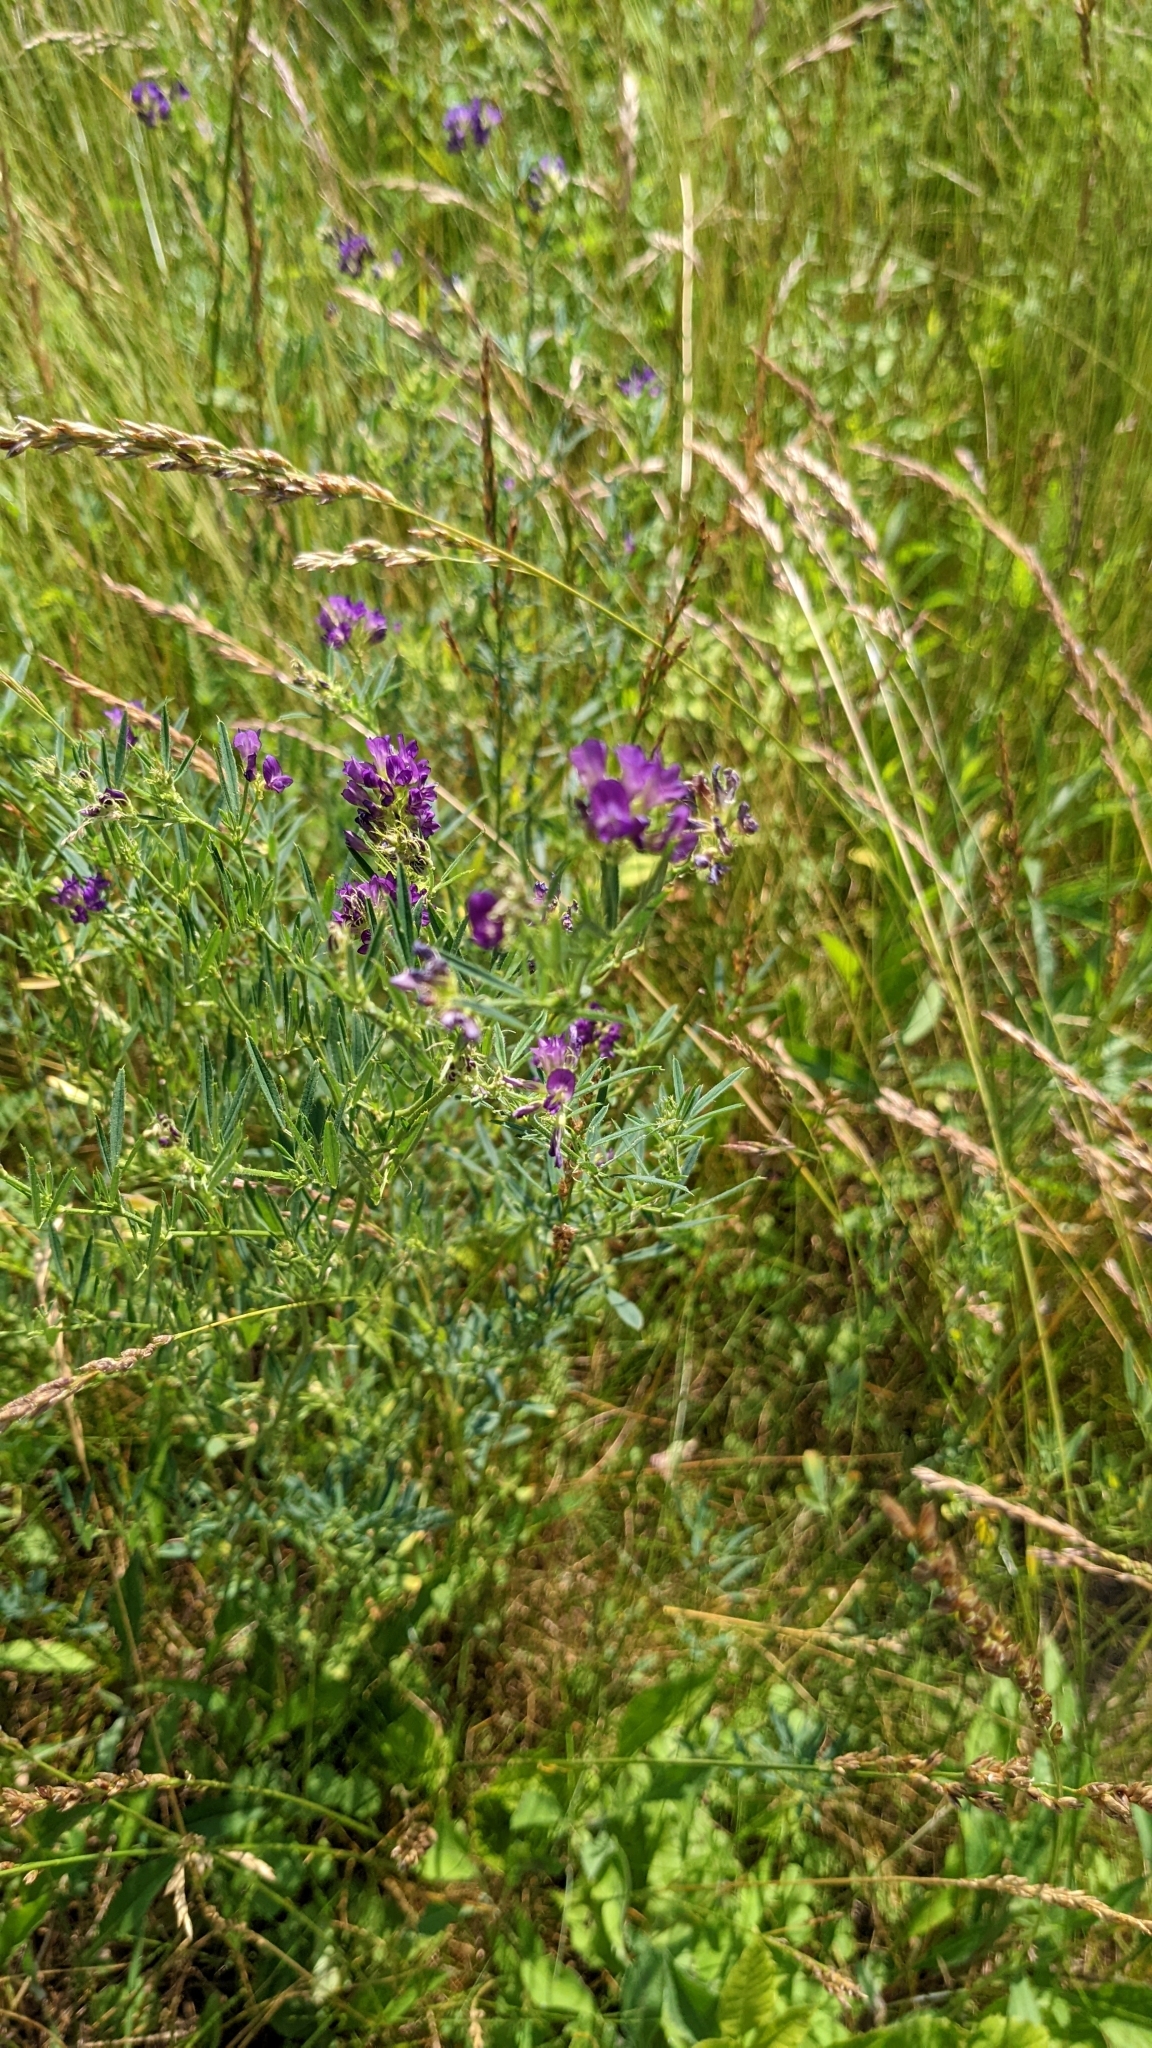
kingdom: Plantae
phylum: Tracheophyta
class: Magnoliopsida
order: Fabales
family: Fabaceae
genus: Medicago
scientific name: Medicago sativa
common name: Alfalfa
